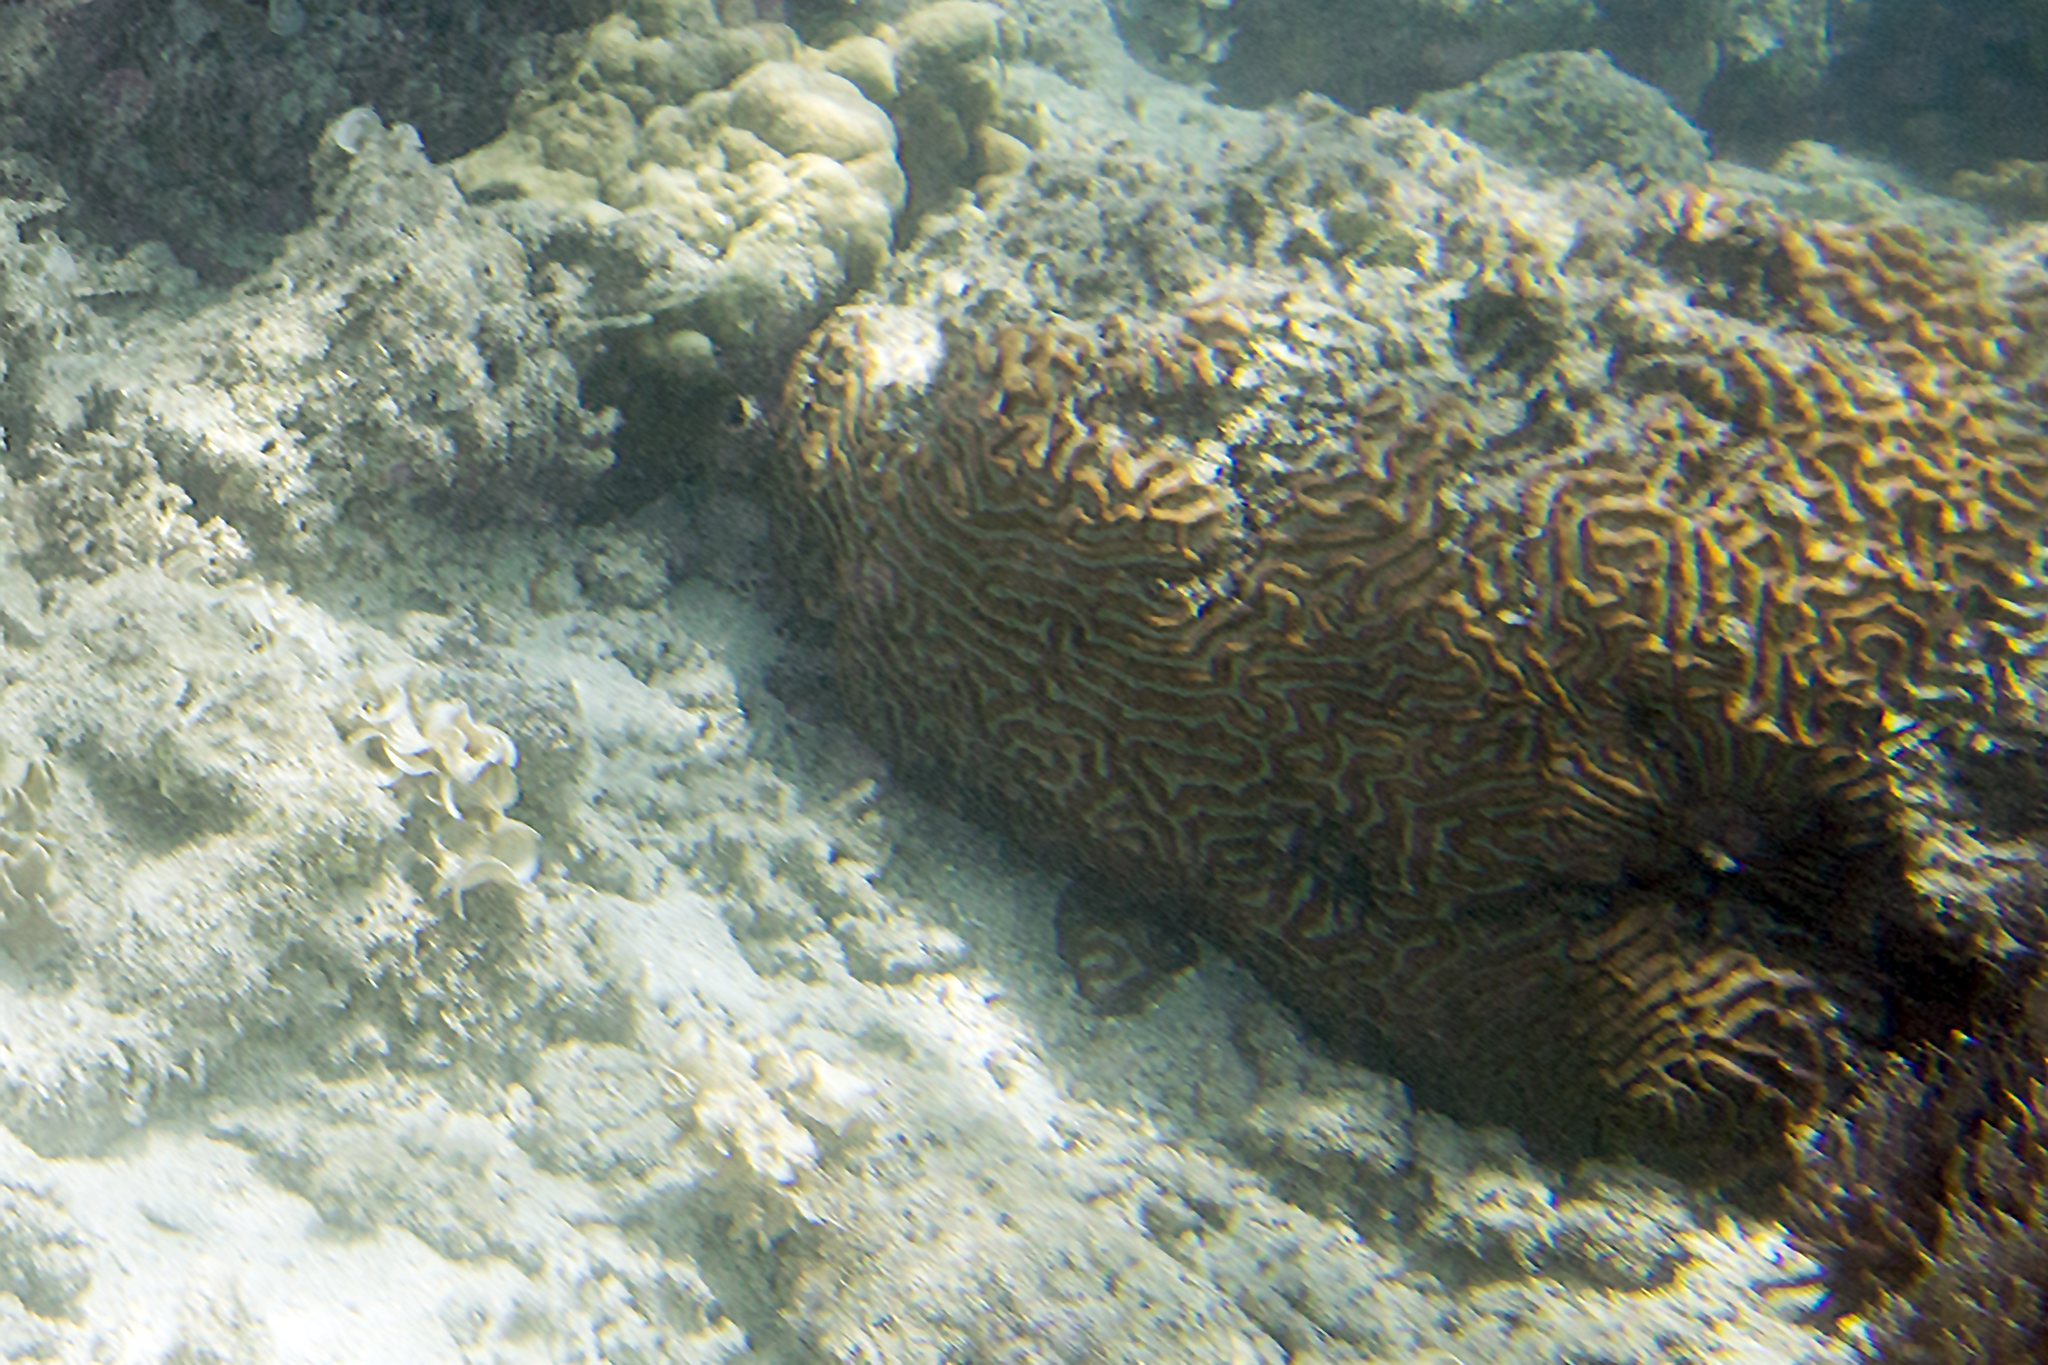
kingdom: Animalia
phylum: Cnidaria
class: Anthozoa
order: Scleractinia
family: Lobophylliidae
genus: Lobophyllia
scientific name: Lobophyllia recta
